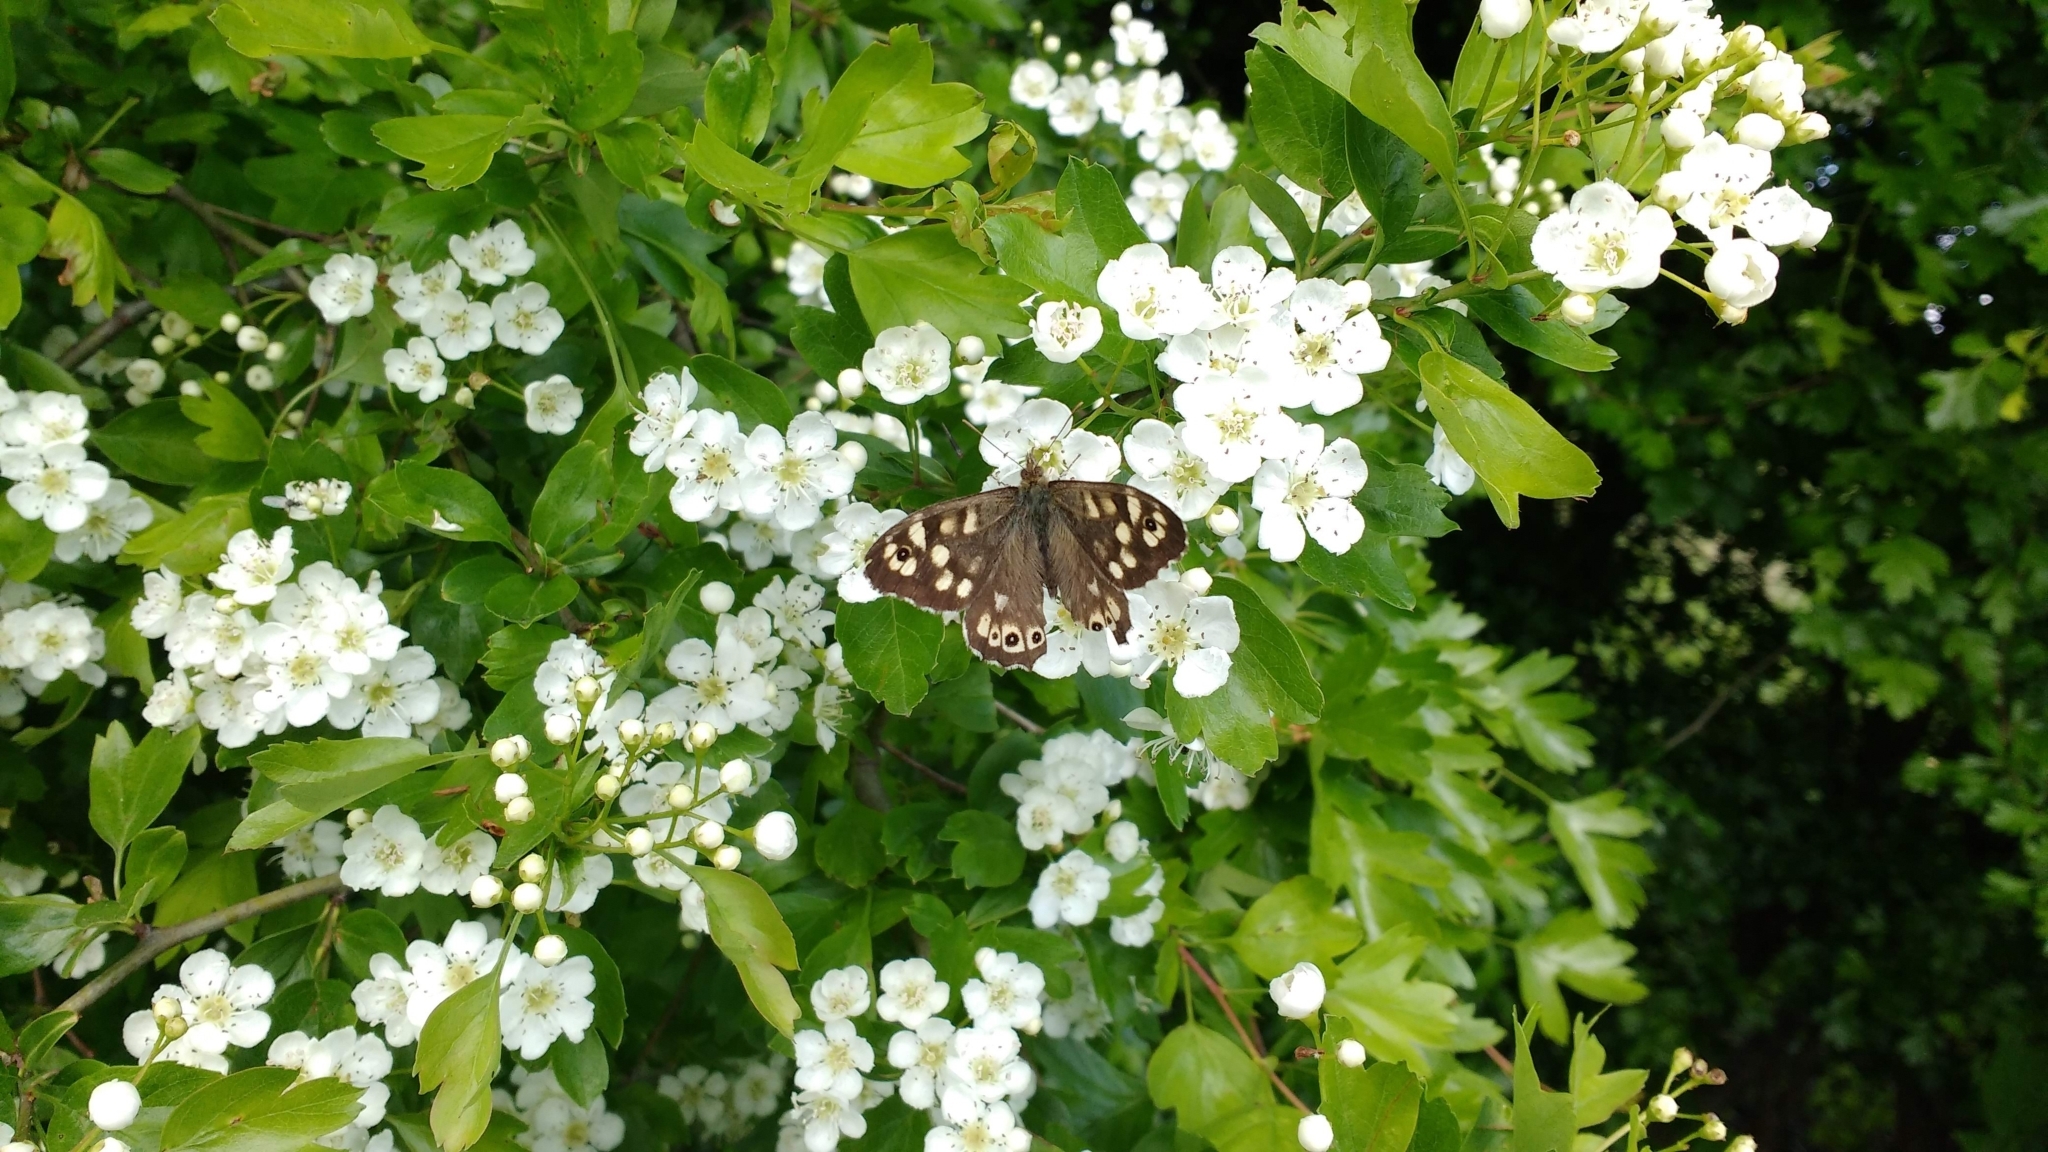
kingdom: Animalia
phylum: Arthropoda
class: Insecta
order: Lepidoptera
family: Nymphalidae
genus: Pararge
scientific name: Pararge aegeria
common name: Speckled wood
